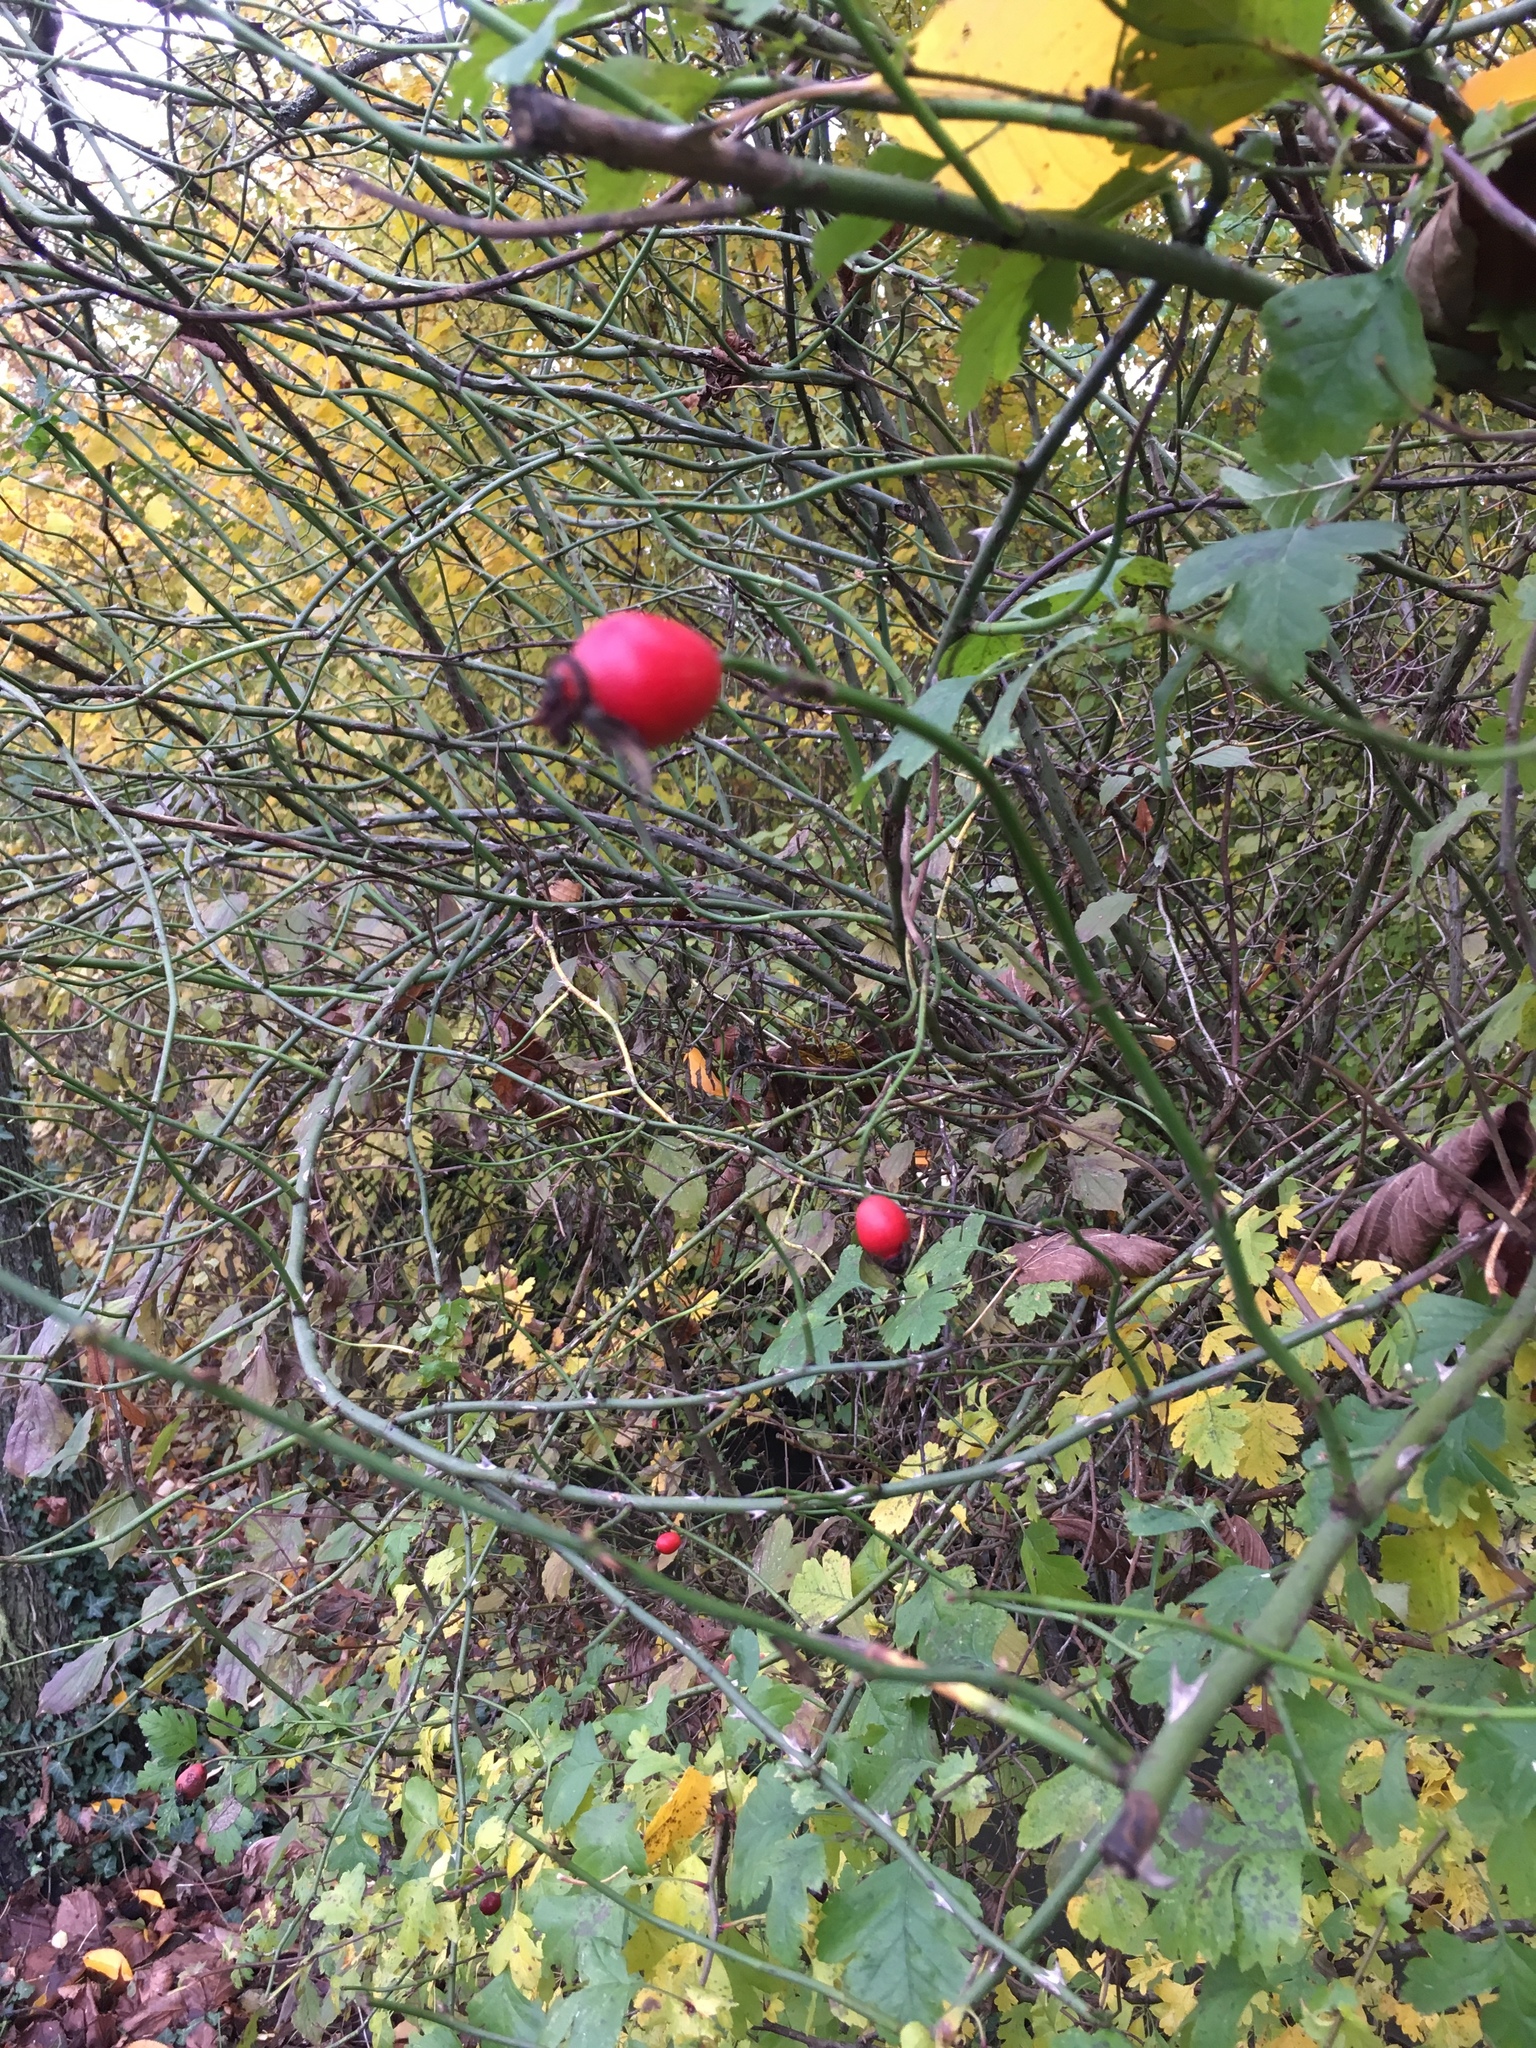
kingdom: Plantae
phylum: Tracheophyta
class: Magnoliopsida
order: Rosales
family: Rosaceae
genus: Rosa
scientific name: Rosa canina
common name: Dog rose
